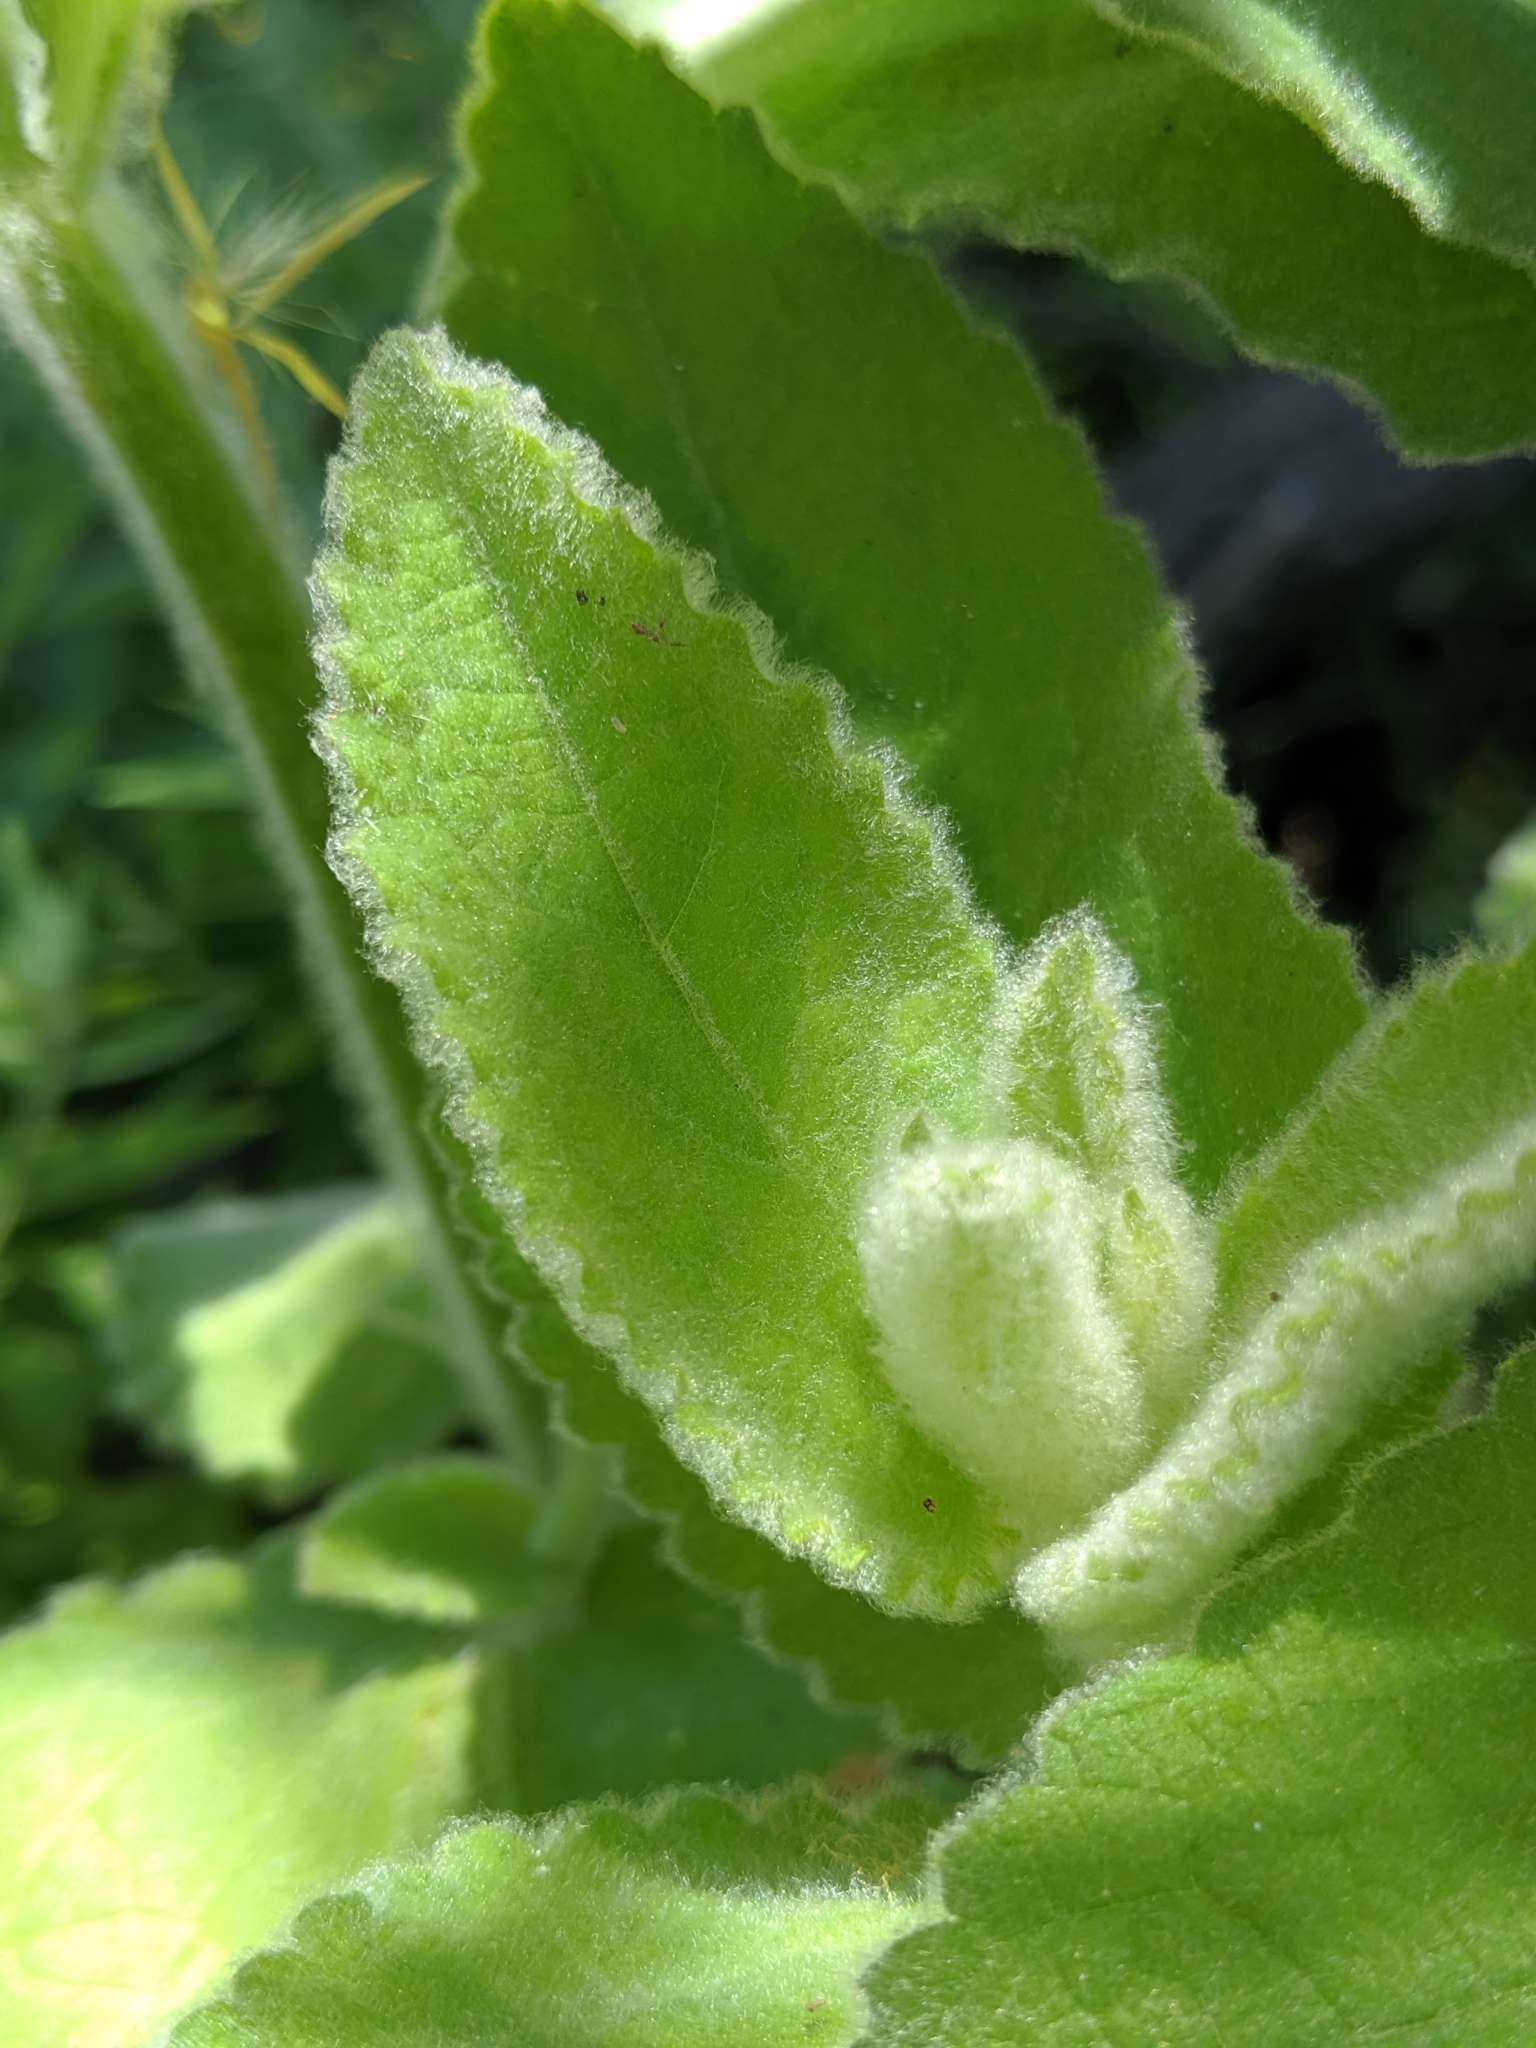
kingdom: Plantae
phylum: Tracheophyta
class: Magnoliopsida
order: Lamiales
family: Lamiaceae
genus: Stachys
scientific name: Stachys albens
